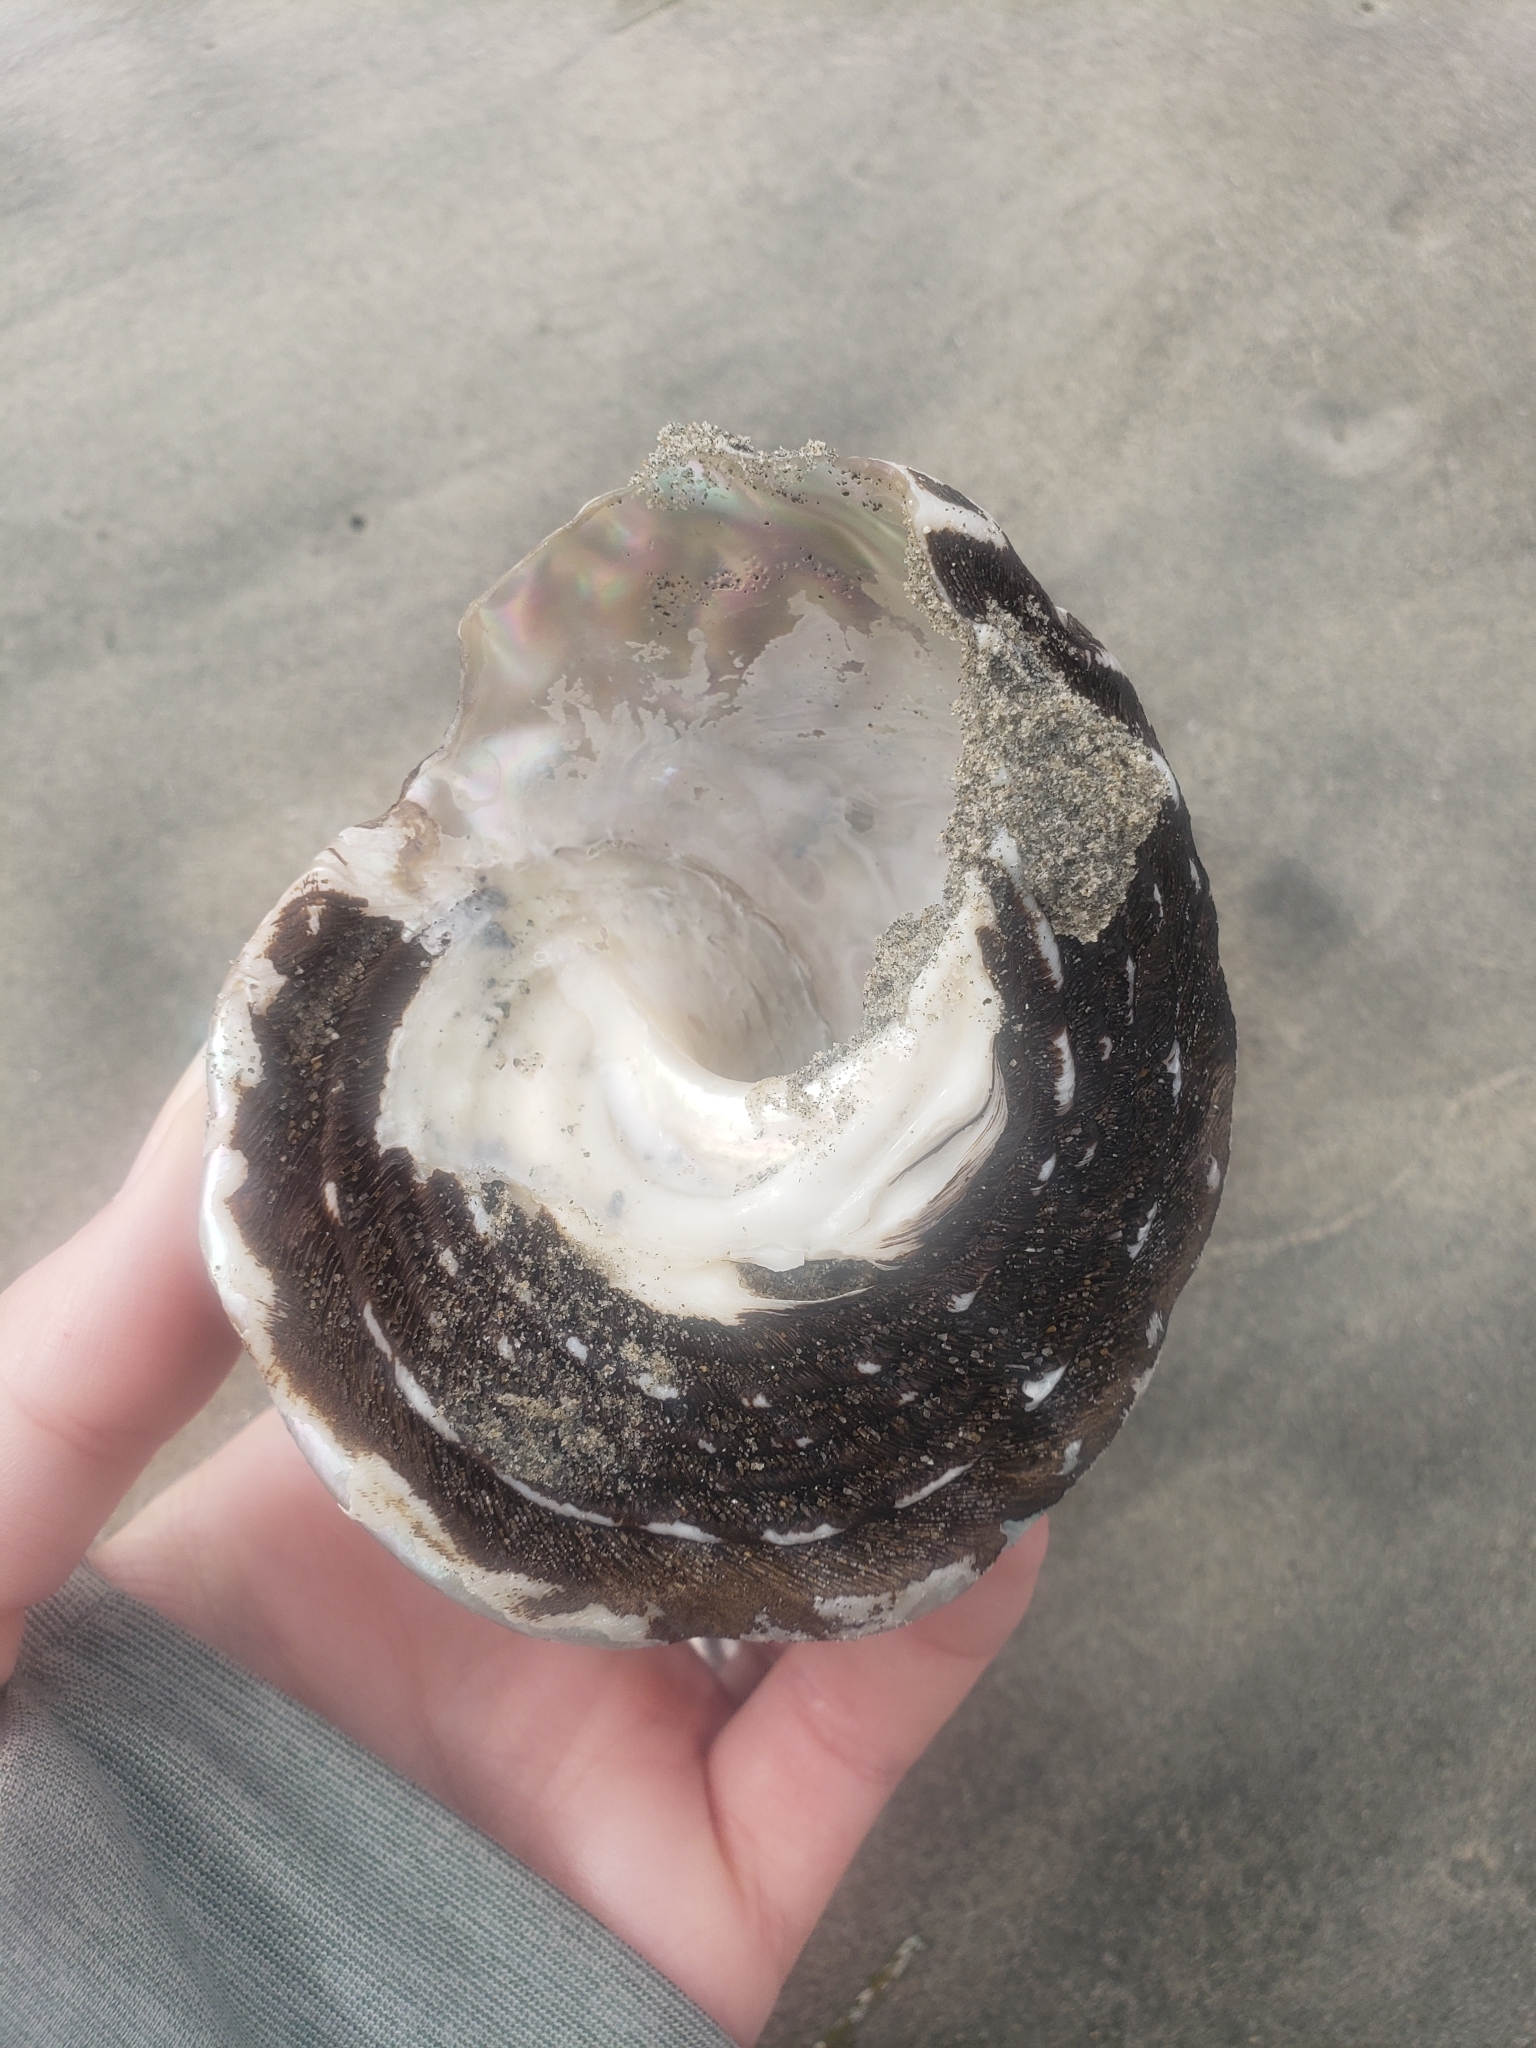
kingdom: Animalia
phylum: Mollusca
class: Gastropoda
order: Trochida
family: Turbinidae
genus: Megastraea
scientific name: Megastraea undosa
